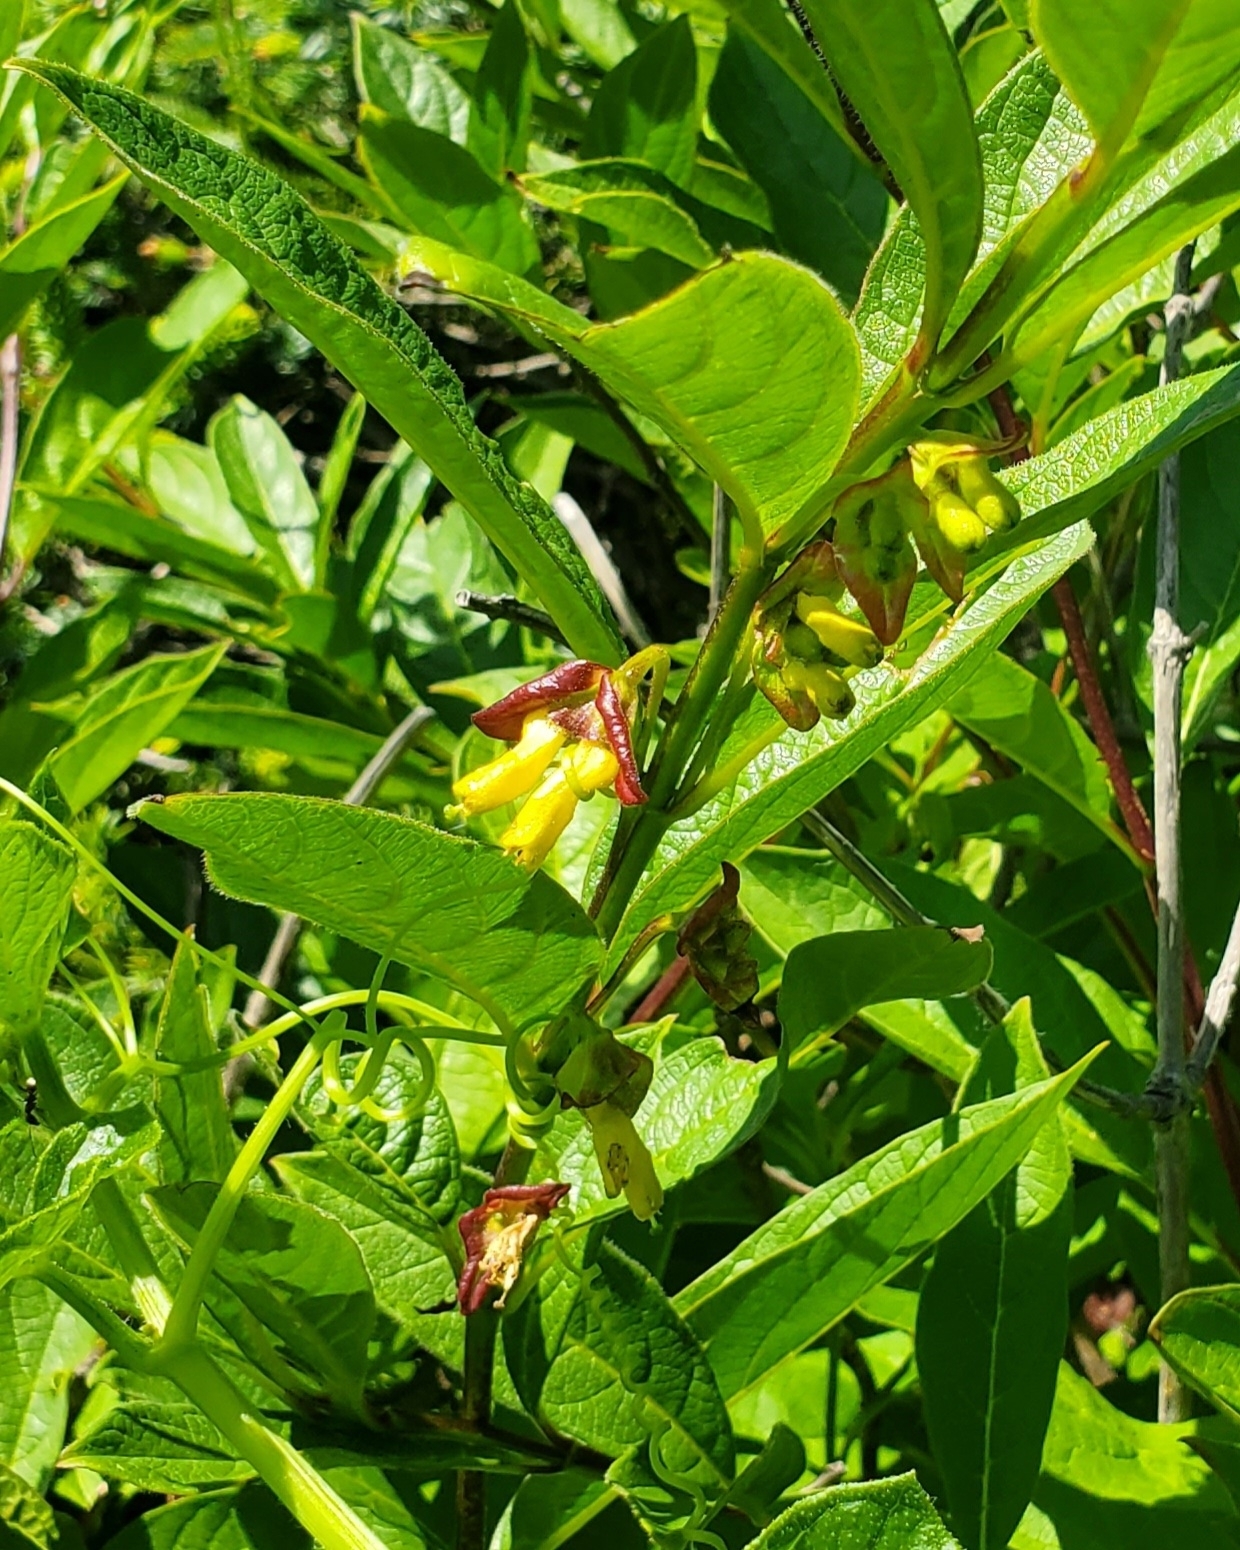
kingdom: Plantae
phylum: Tracheophyta
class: Magnoliopsida
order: Dipsacales
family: Caprifoliaceae
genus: Lonicera
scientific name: Lonicera involucrata
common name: Californian honeysuckle
